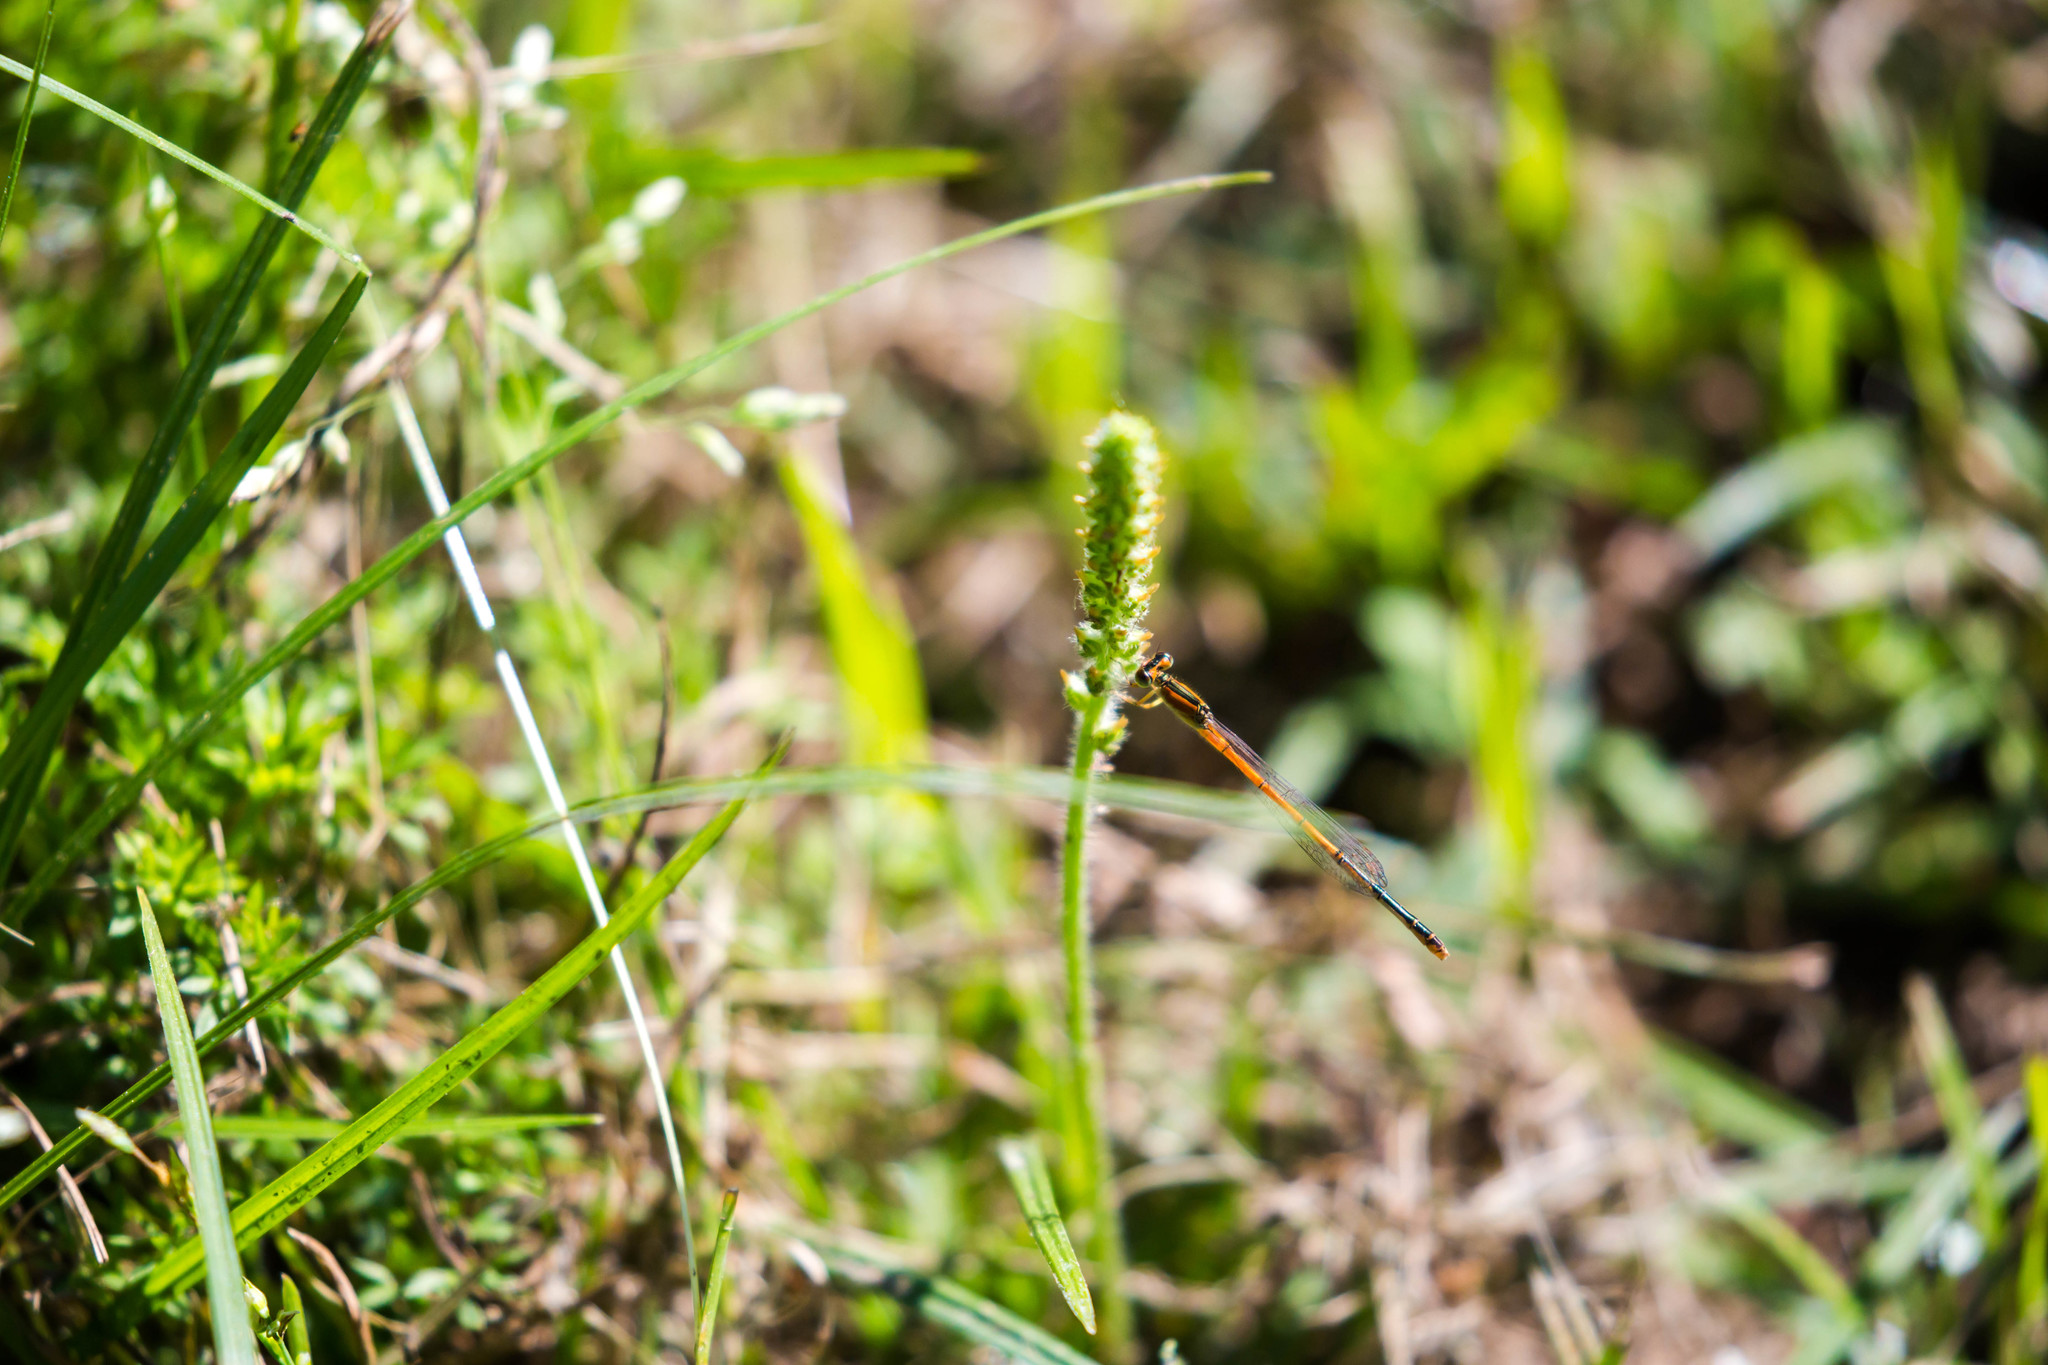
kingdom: Animalia
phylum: Arthropoda
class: Insecta
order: Odonata
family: Coenagrionidae
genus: Ischnura
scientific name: Ischnura hastata
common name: Citrine forktail
